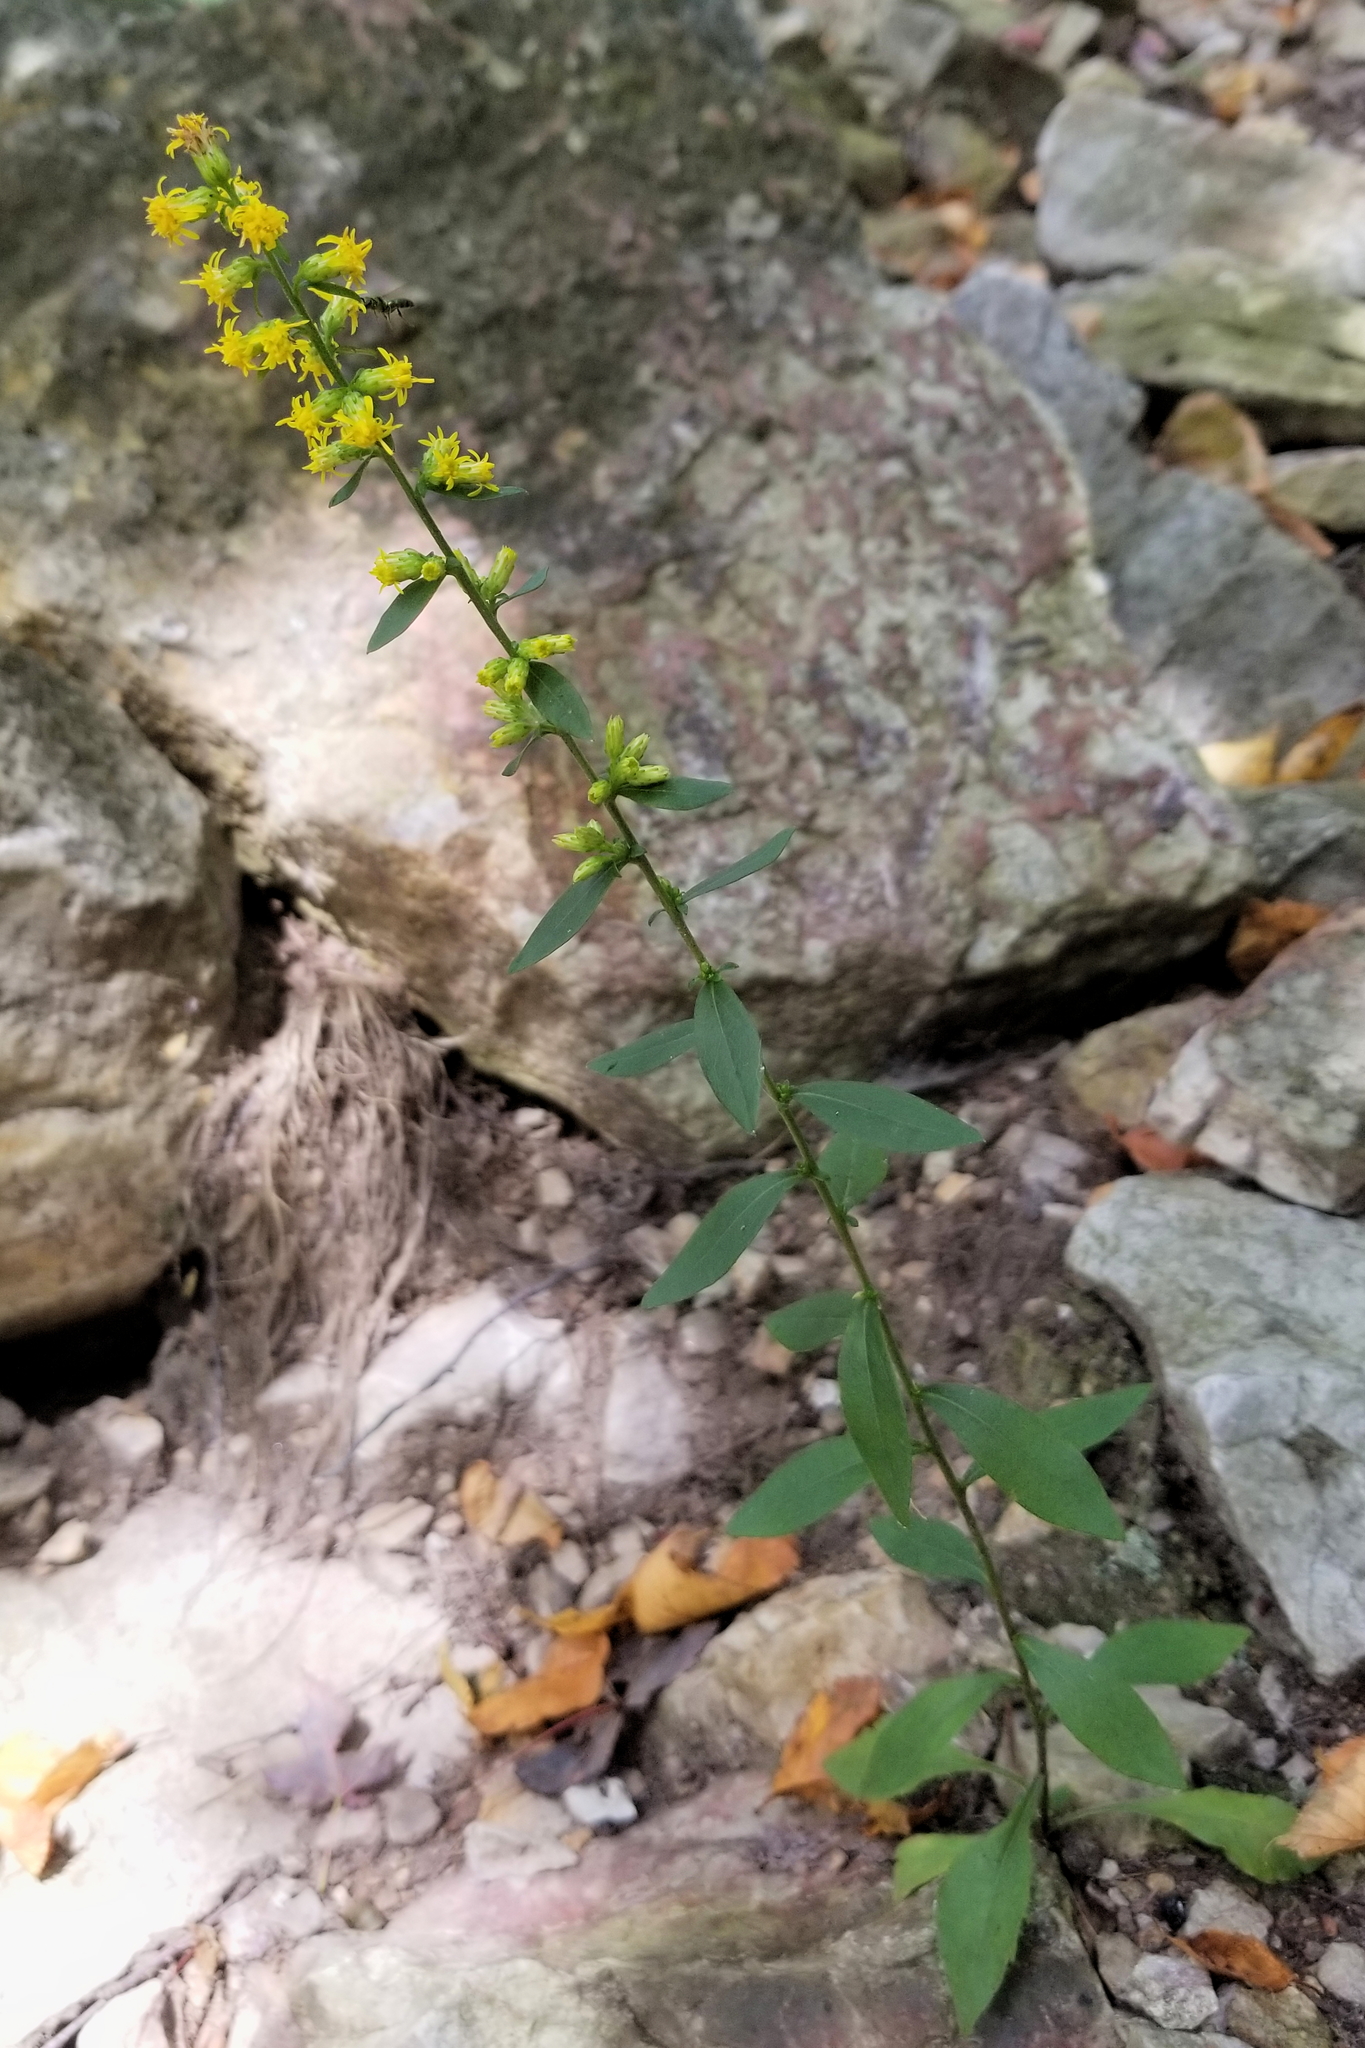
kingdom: Plantae
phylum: Tracheophyta
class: Magnoliopsida
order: Asterales
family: Asteraceae
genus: Solidago
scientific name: Solidago hispida
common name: Hairy goldenrod
